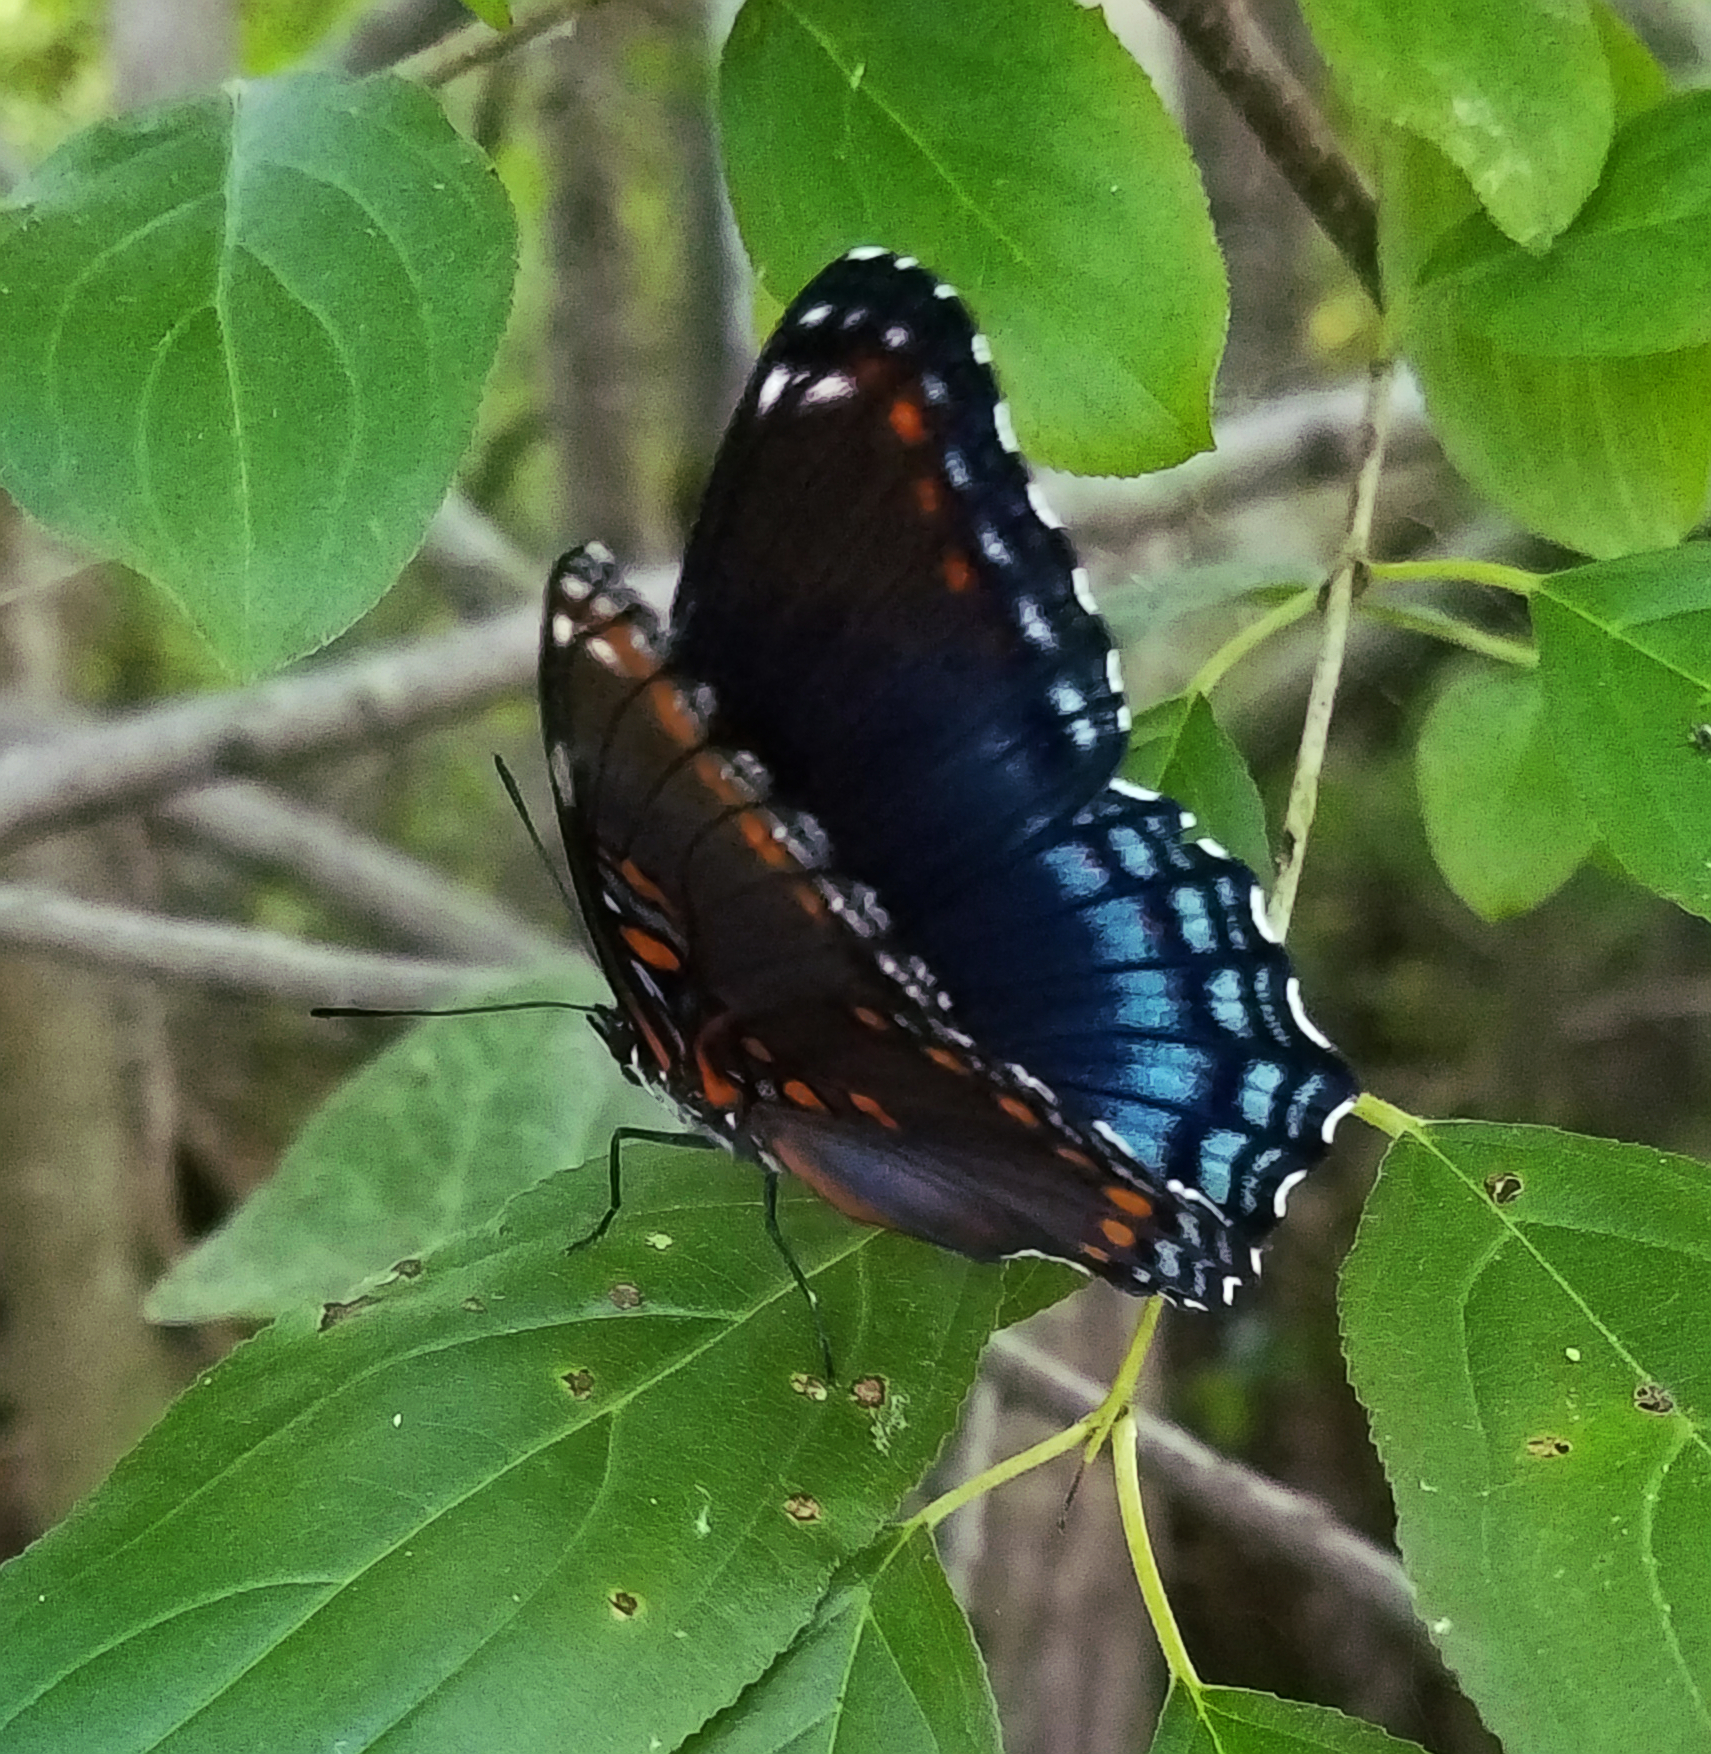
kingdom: Animalia
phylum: Arthropoda
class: Insecta
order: Lepidoptera
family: Nymphalidae
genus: Limenitis
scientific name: Limenitis astyanax
